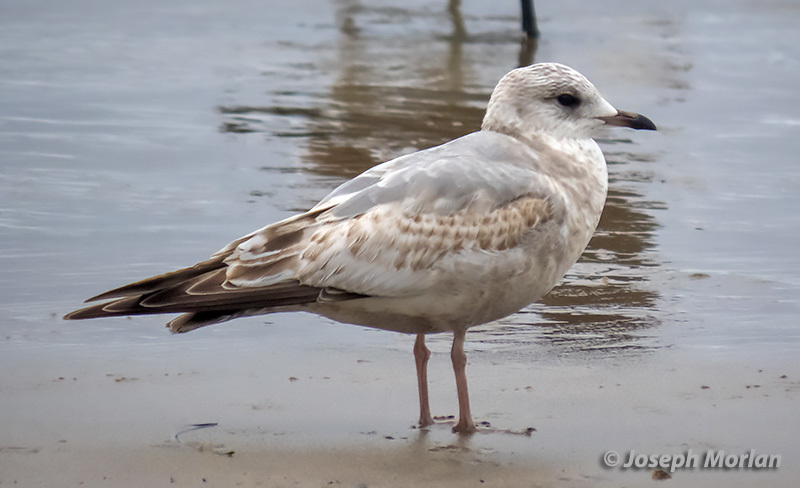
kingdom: Animalia
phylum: Chordata
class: Aves
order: Charadriiformes
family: Laridae
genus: Larus
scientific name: Larus brachyrhynchus
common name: Short-billed gull
